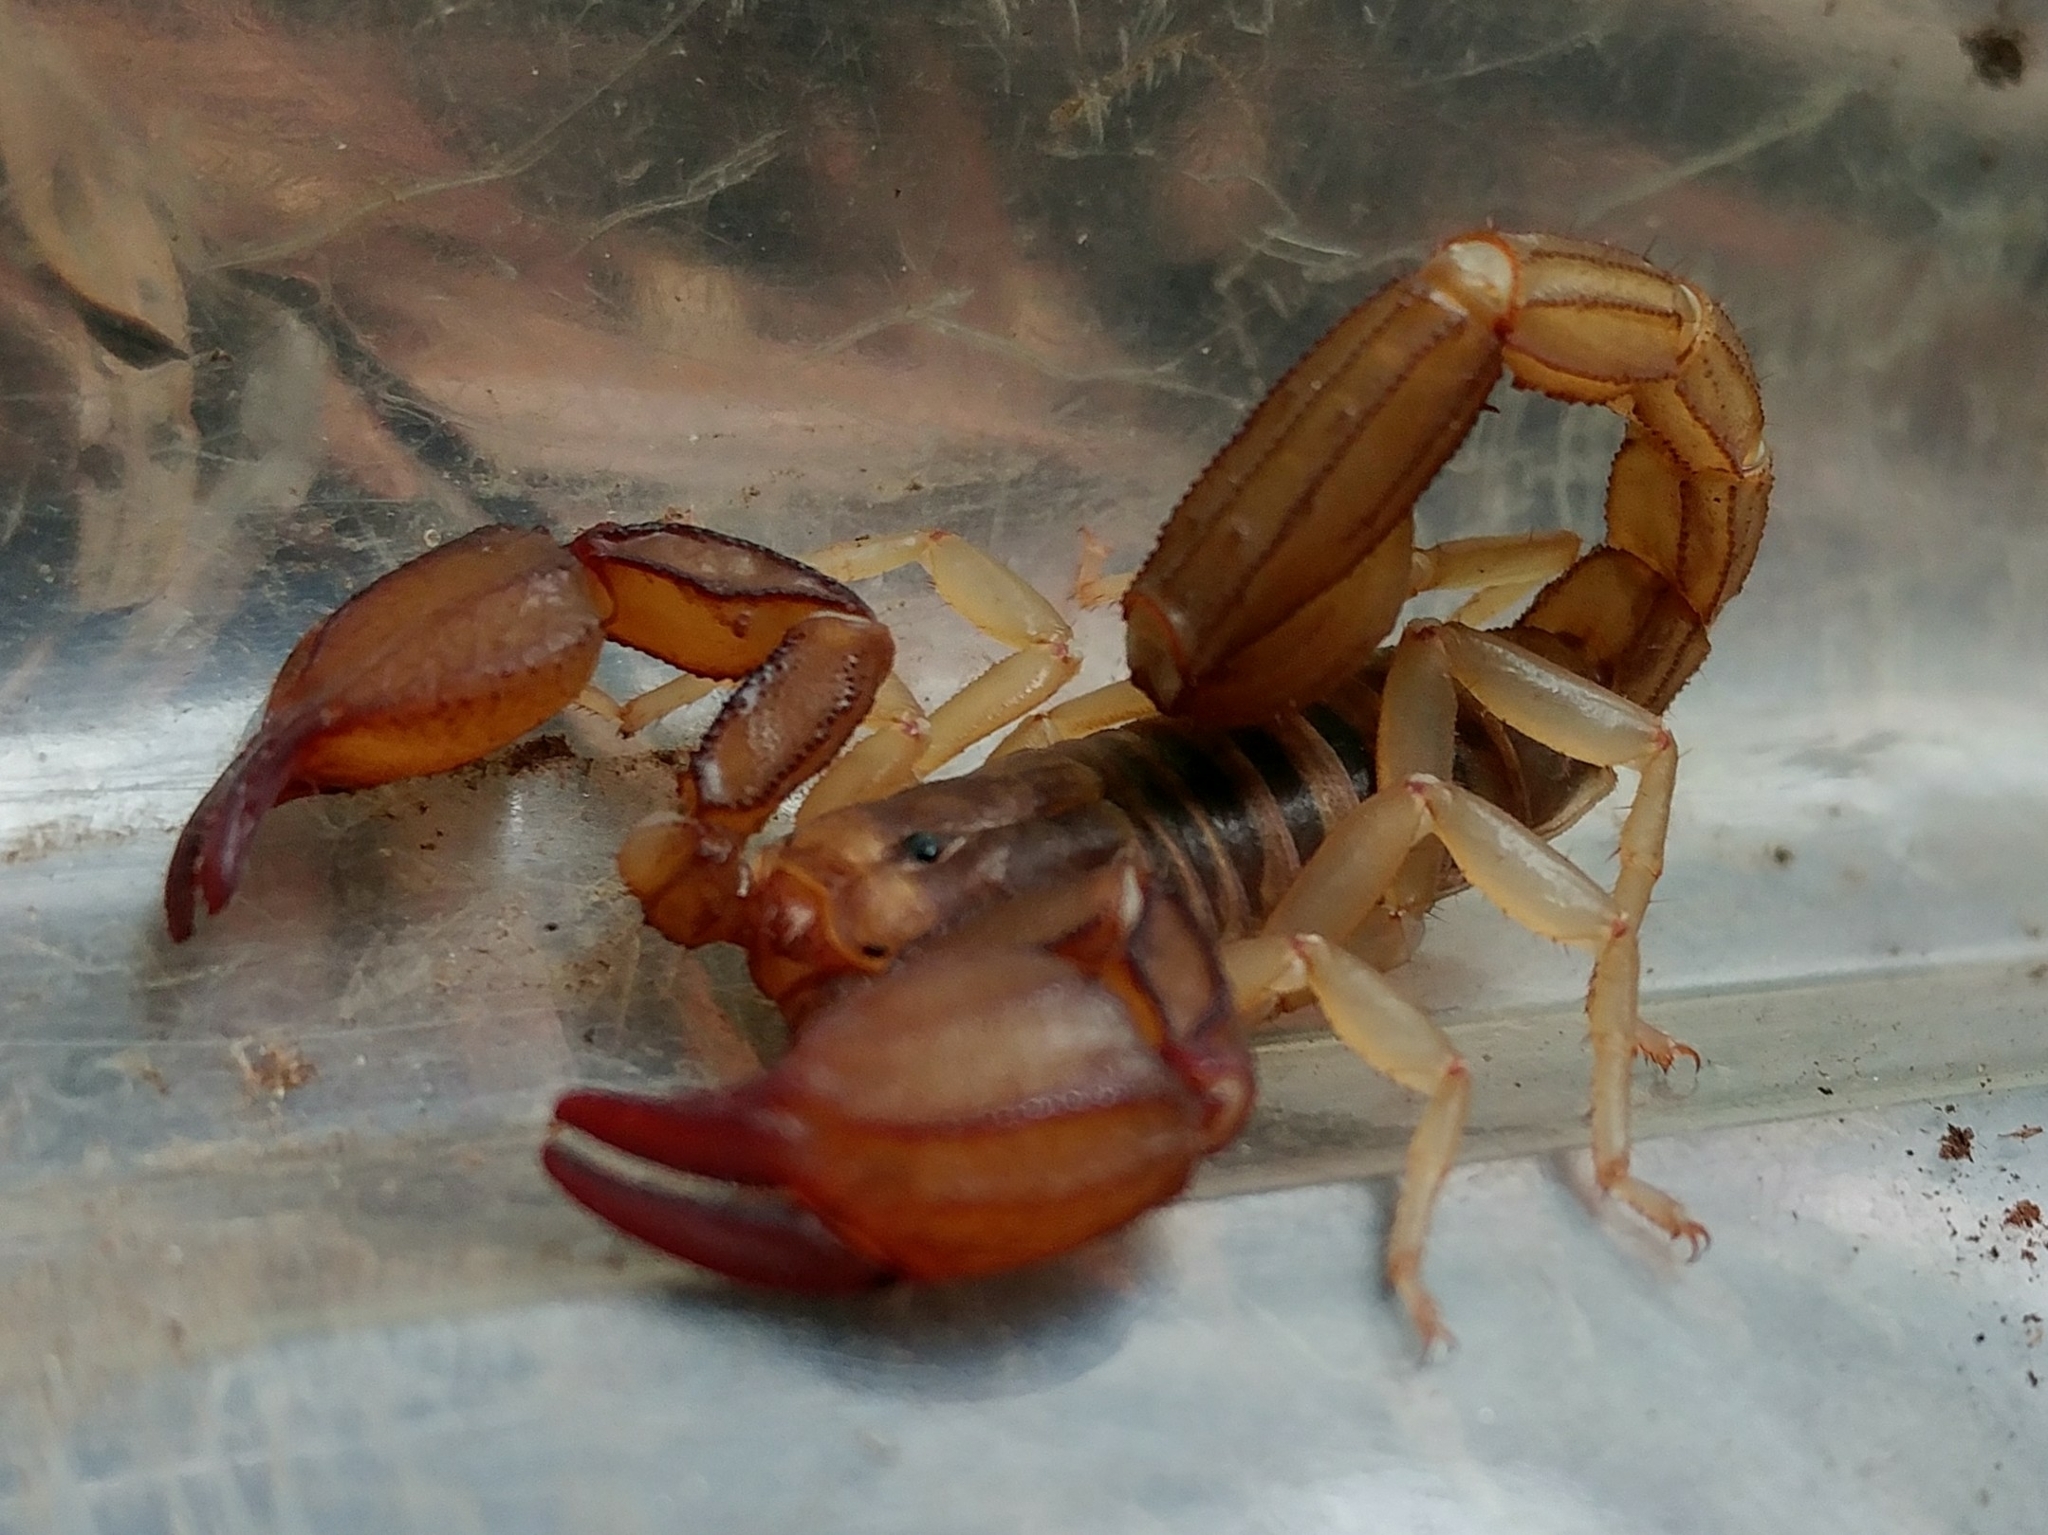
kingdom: Animalia
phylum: Arthropoda
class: Arachnida
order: Scorpiones
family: Vaejovidae
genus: Uroctonites
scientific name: Uroctonites montereus
